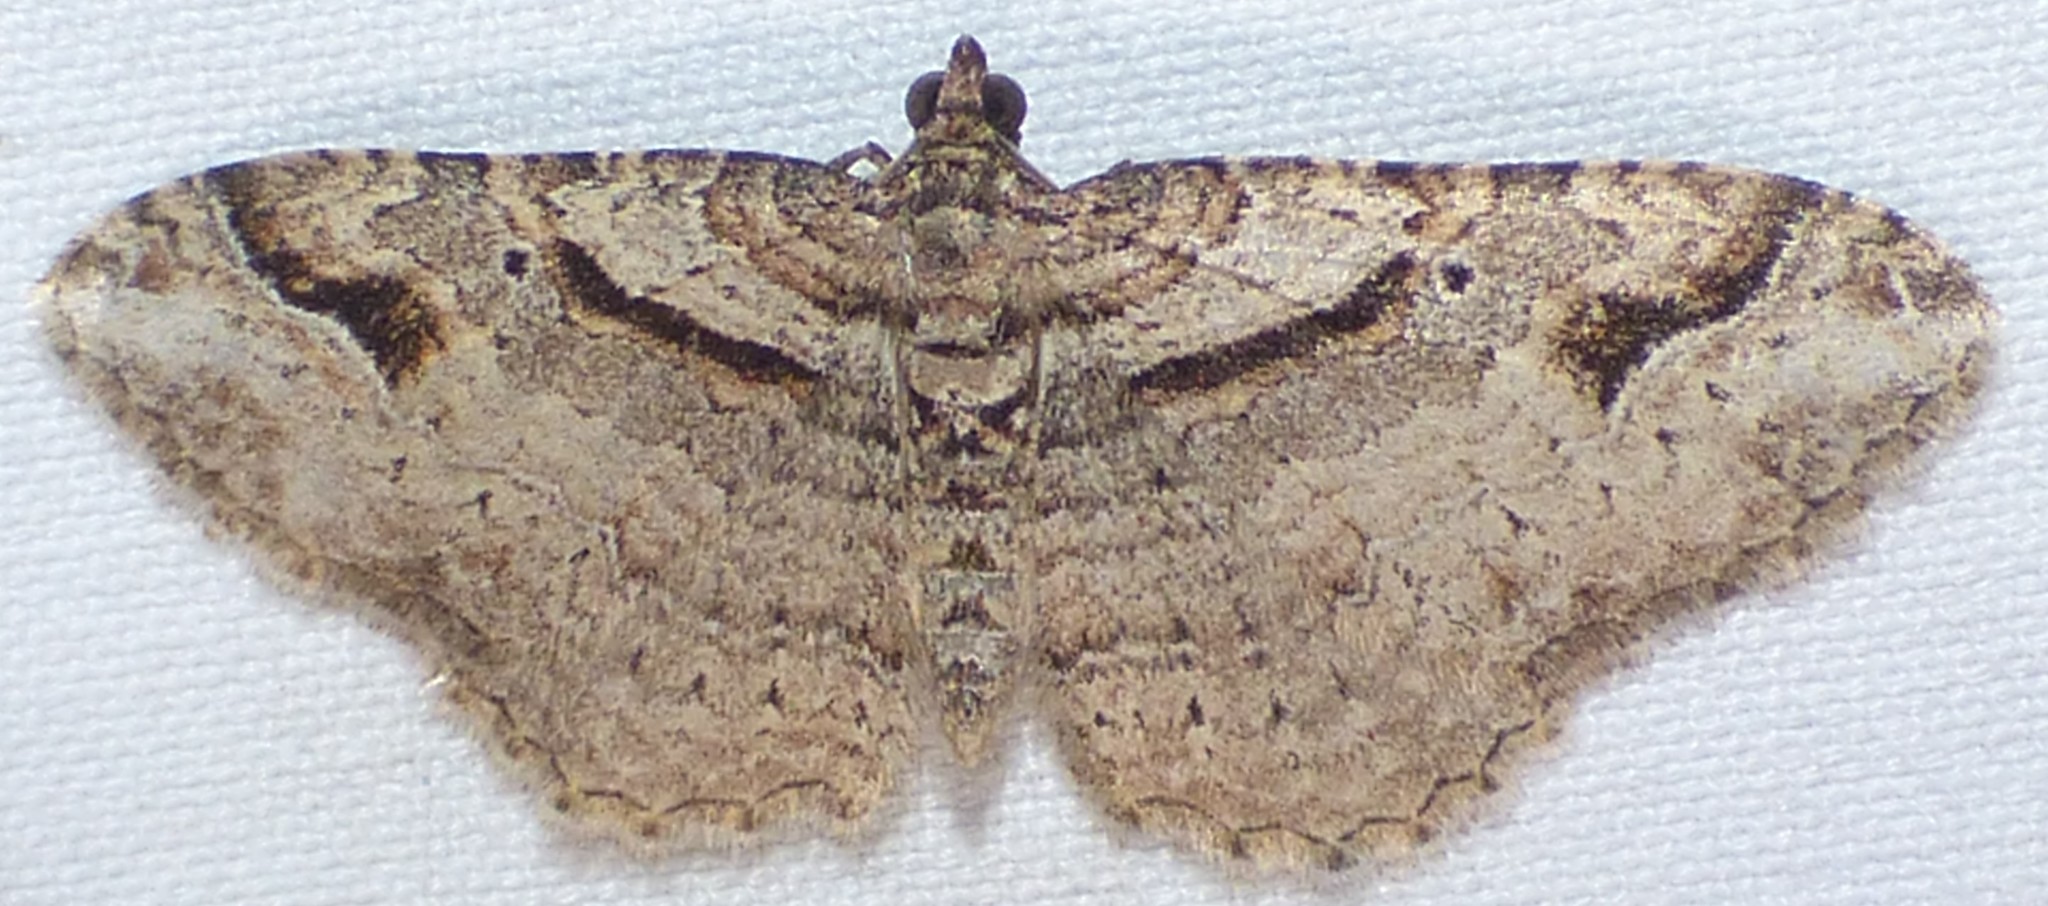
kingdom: Animalia
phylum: Arthropoda
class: Insecta
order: Lepidoptera
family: Geometridae
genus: Costaconvexa
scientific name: Costaconvexa centrostrigaria
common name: Bent-line carpet
